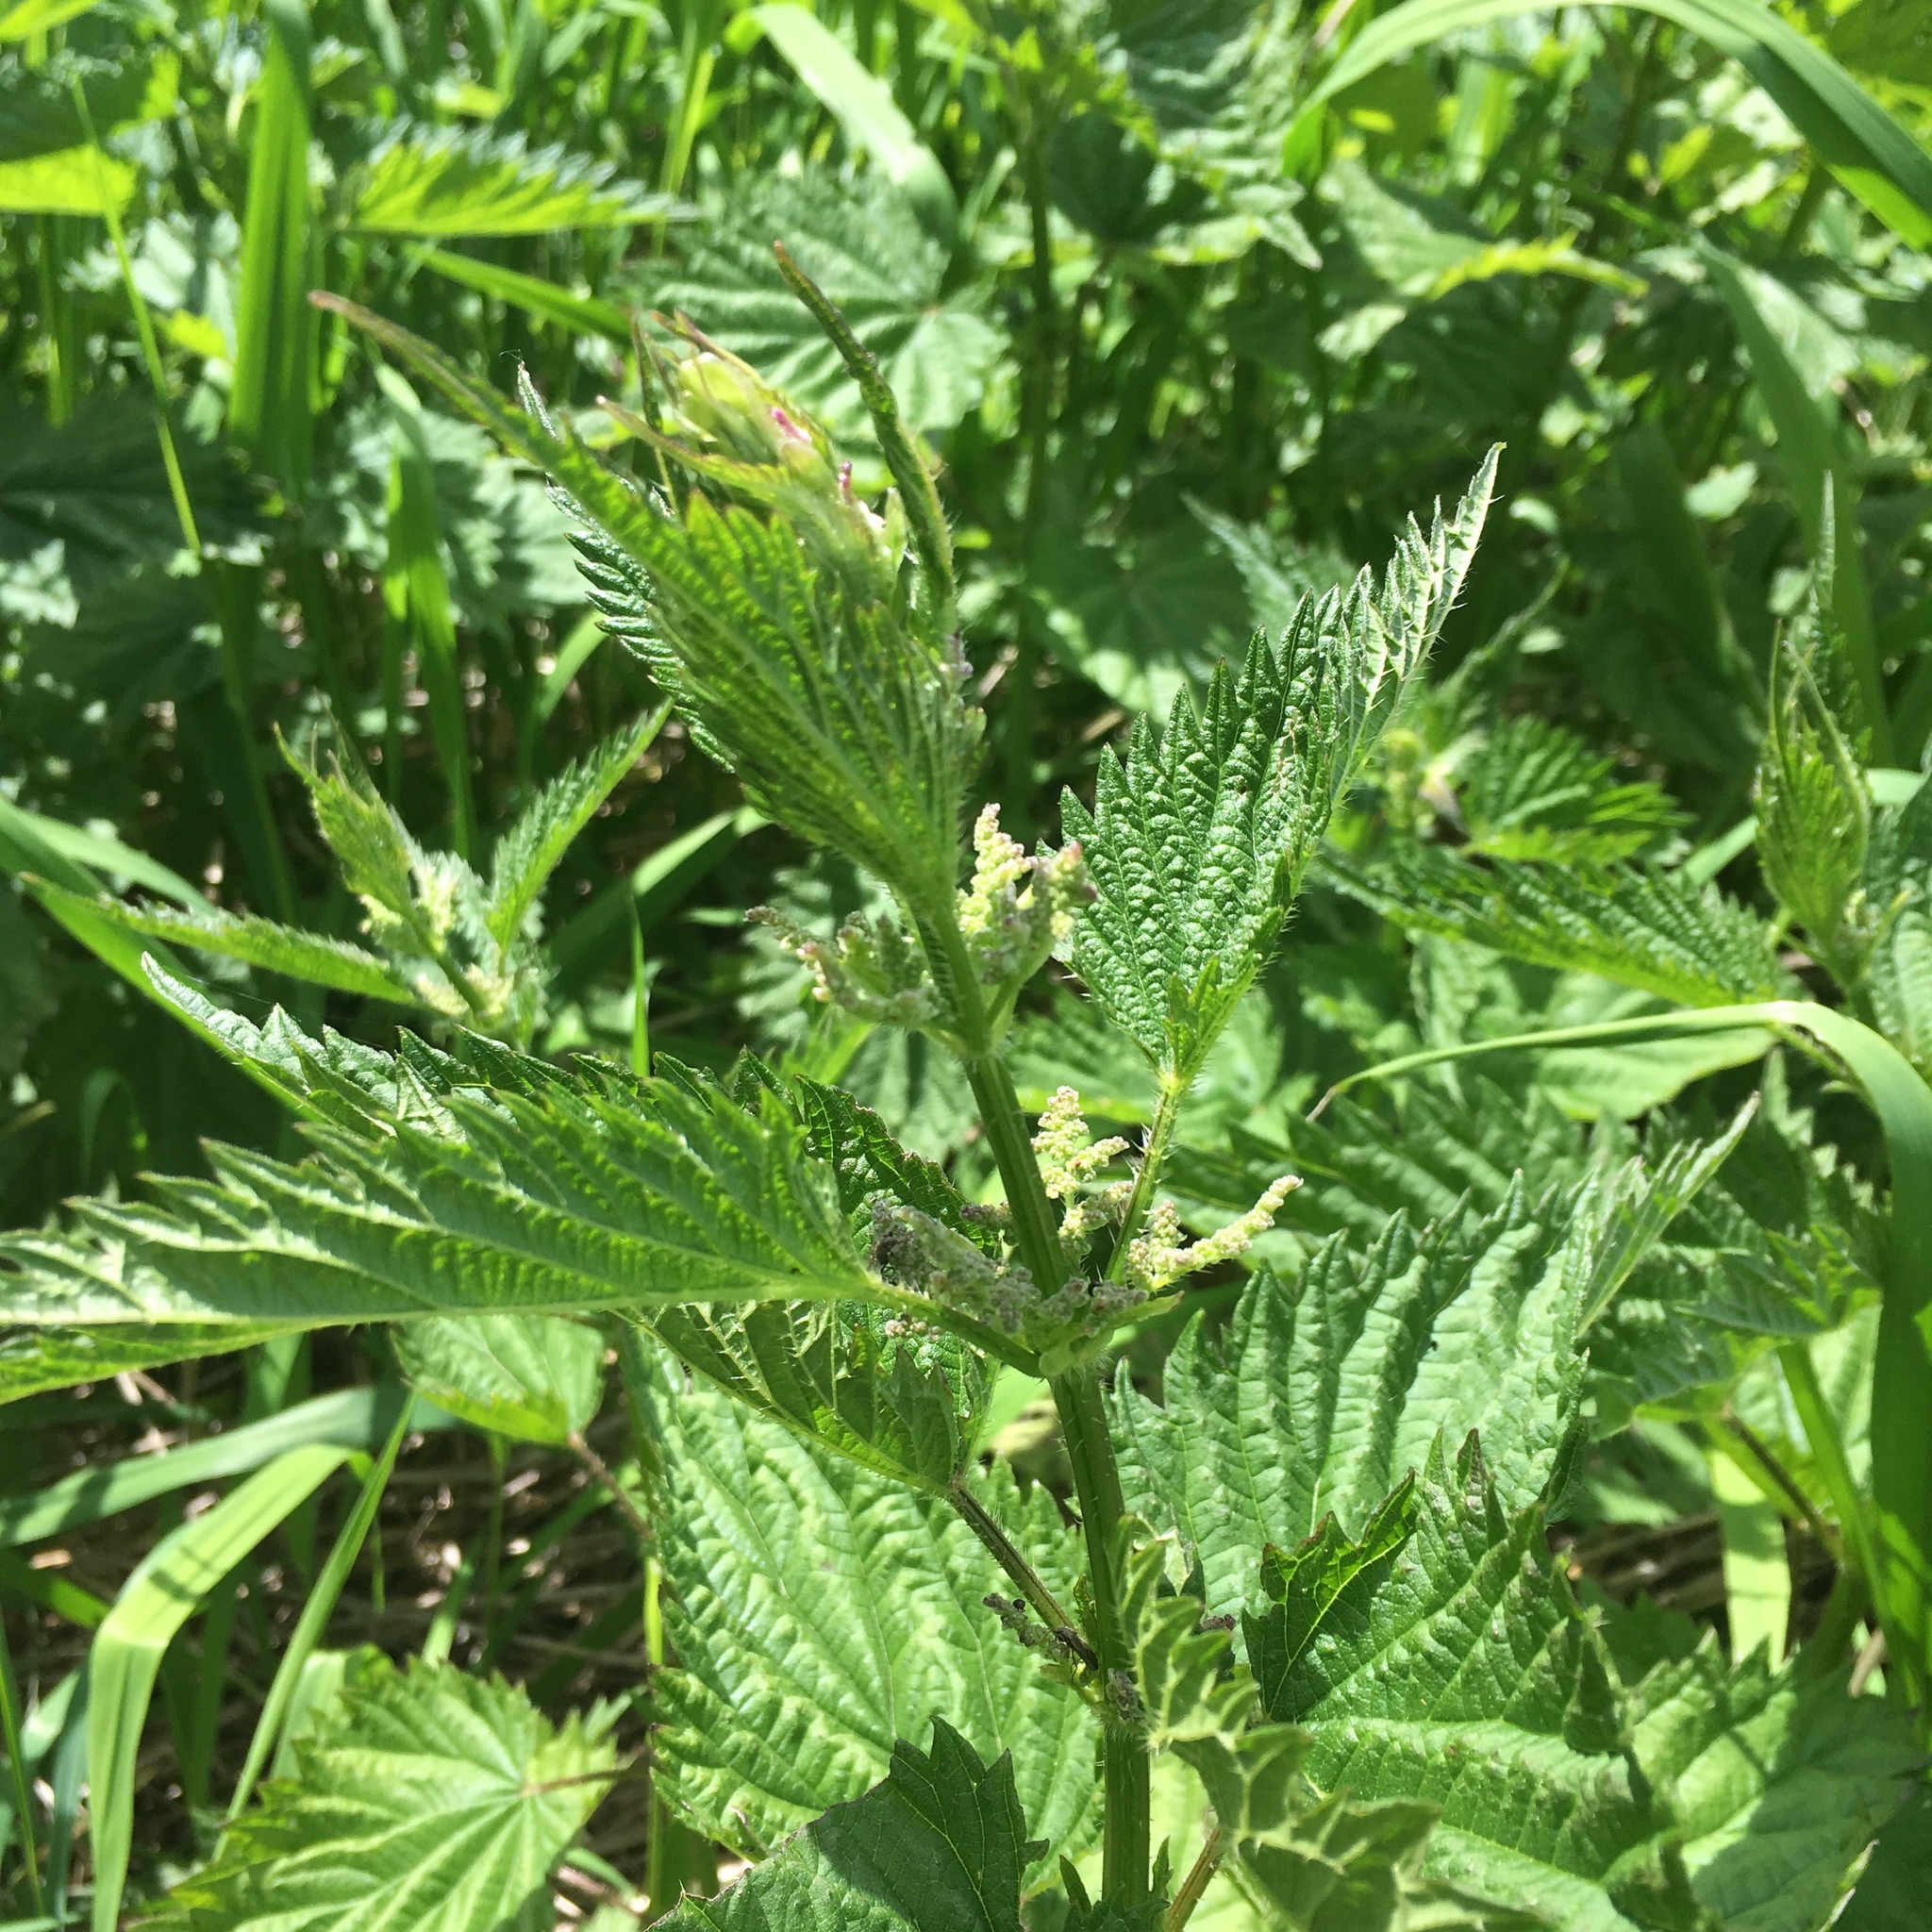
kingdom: Plantae
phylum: Tracheophyta
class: Magnoliopsida
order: Rosales
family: Urticaceae
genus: Urtica
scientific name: Urtica gracilis
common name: Slender stinging nettle
